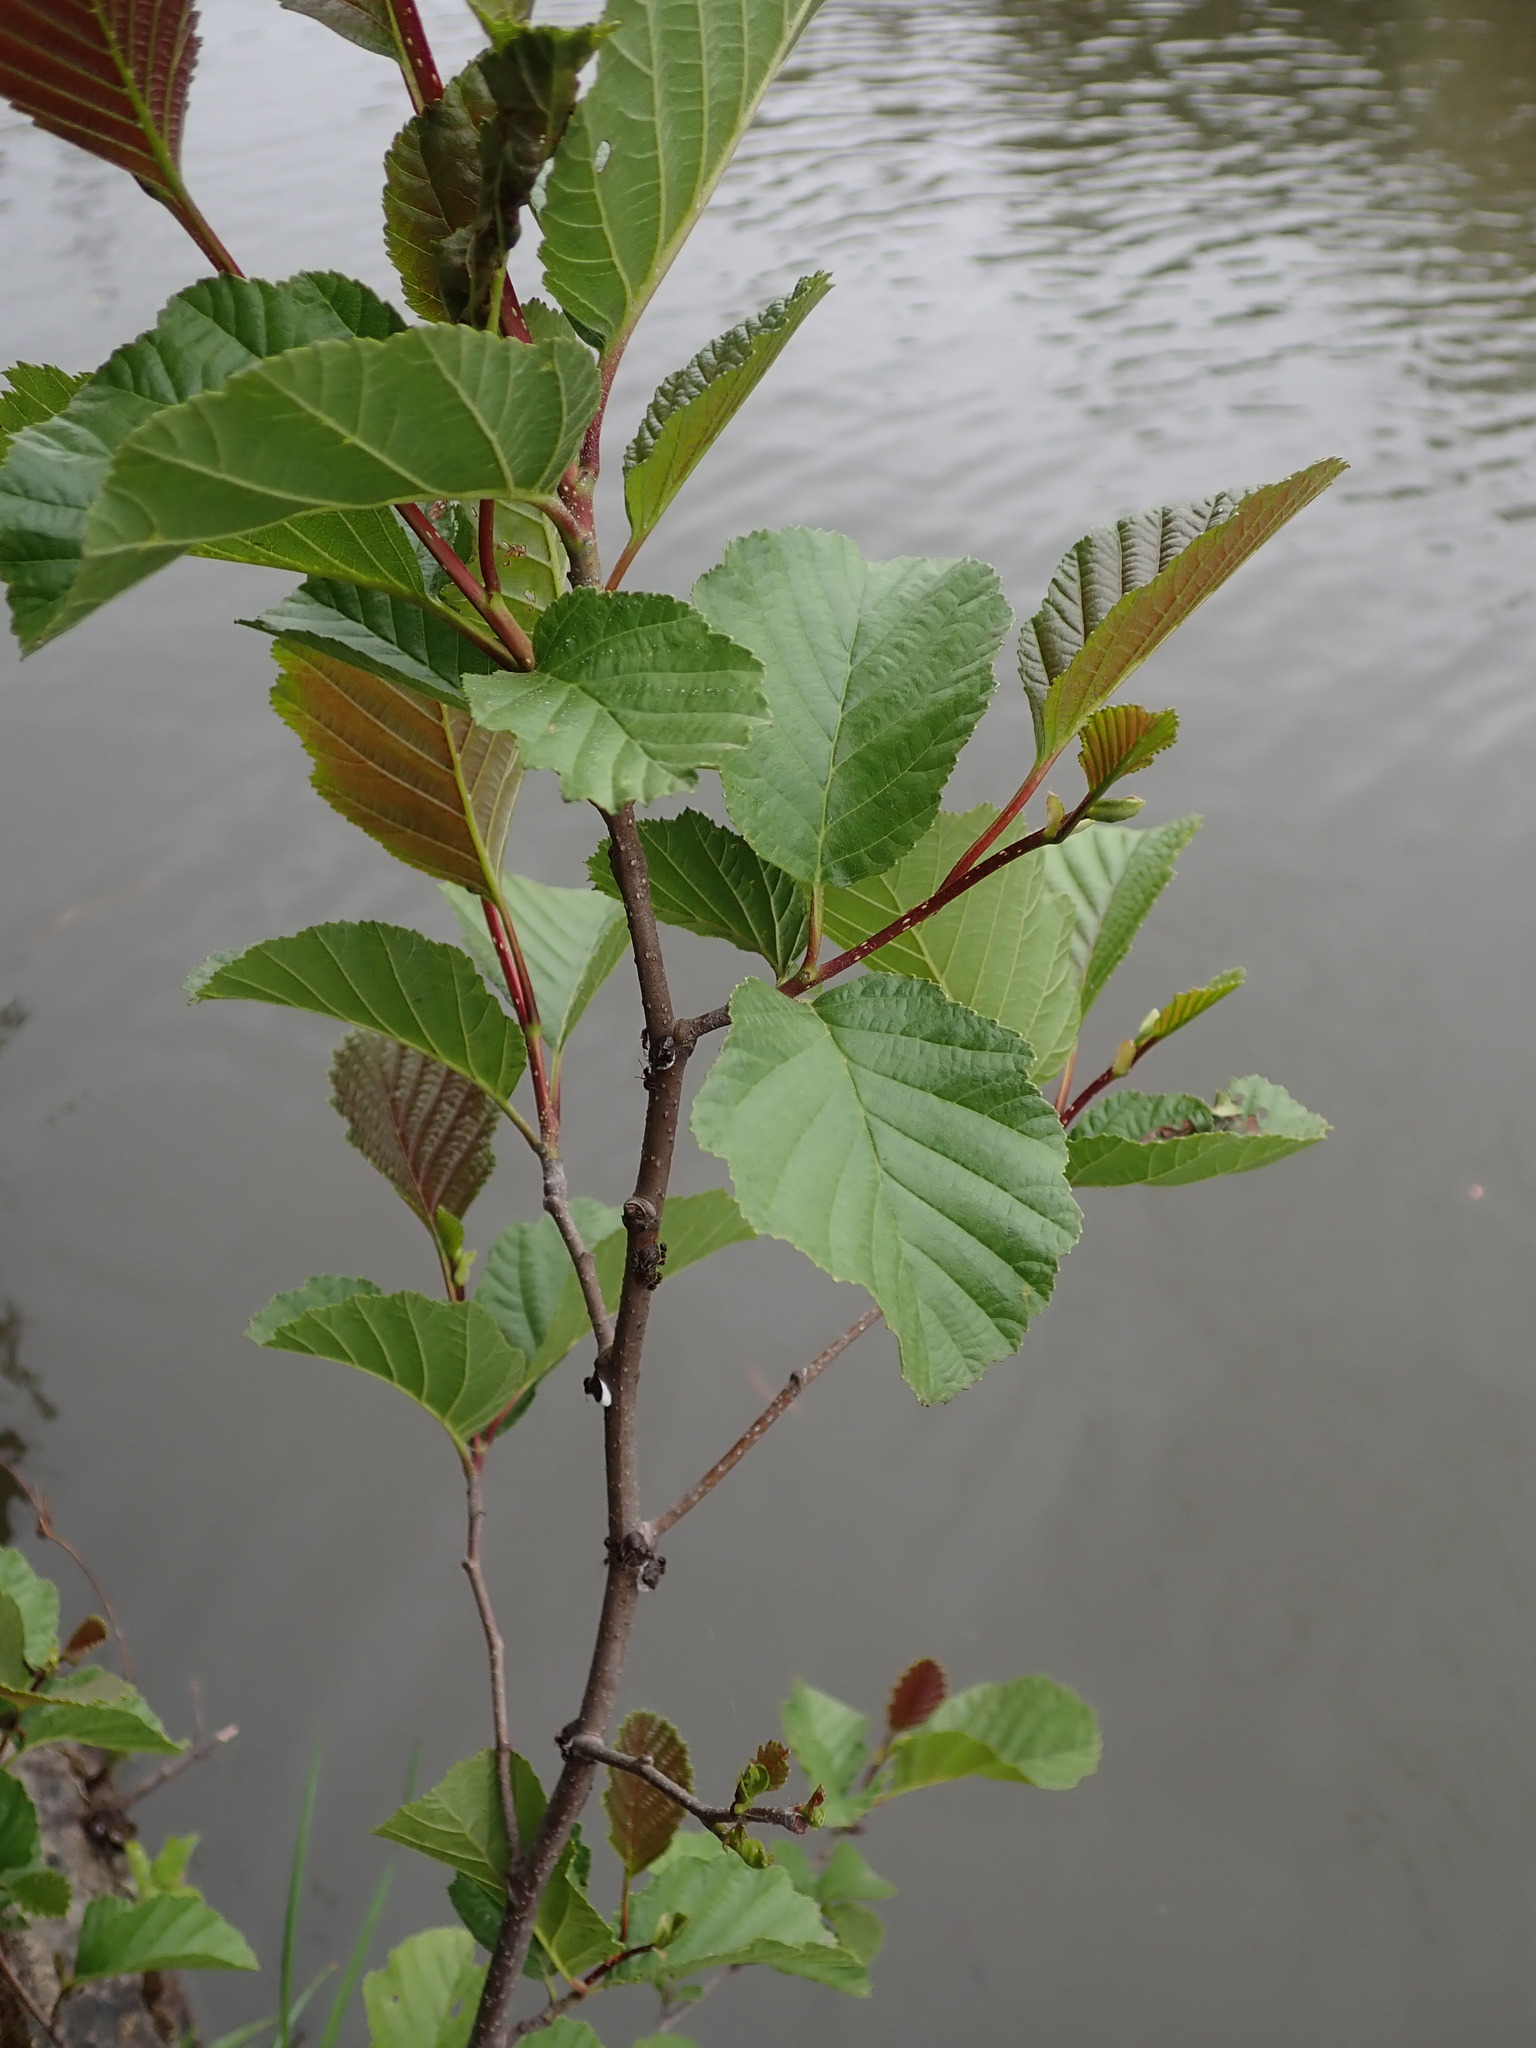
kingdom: Plantae
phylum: Tracheophyta
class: Magnoliopsida
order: Fagales
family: Betulaceae
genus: Alnus
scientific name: Alnus glutinosa
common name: Black alder
